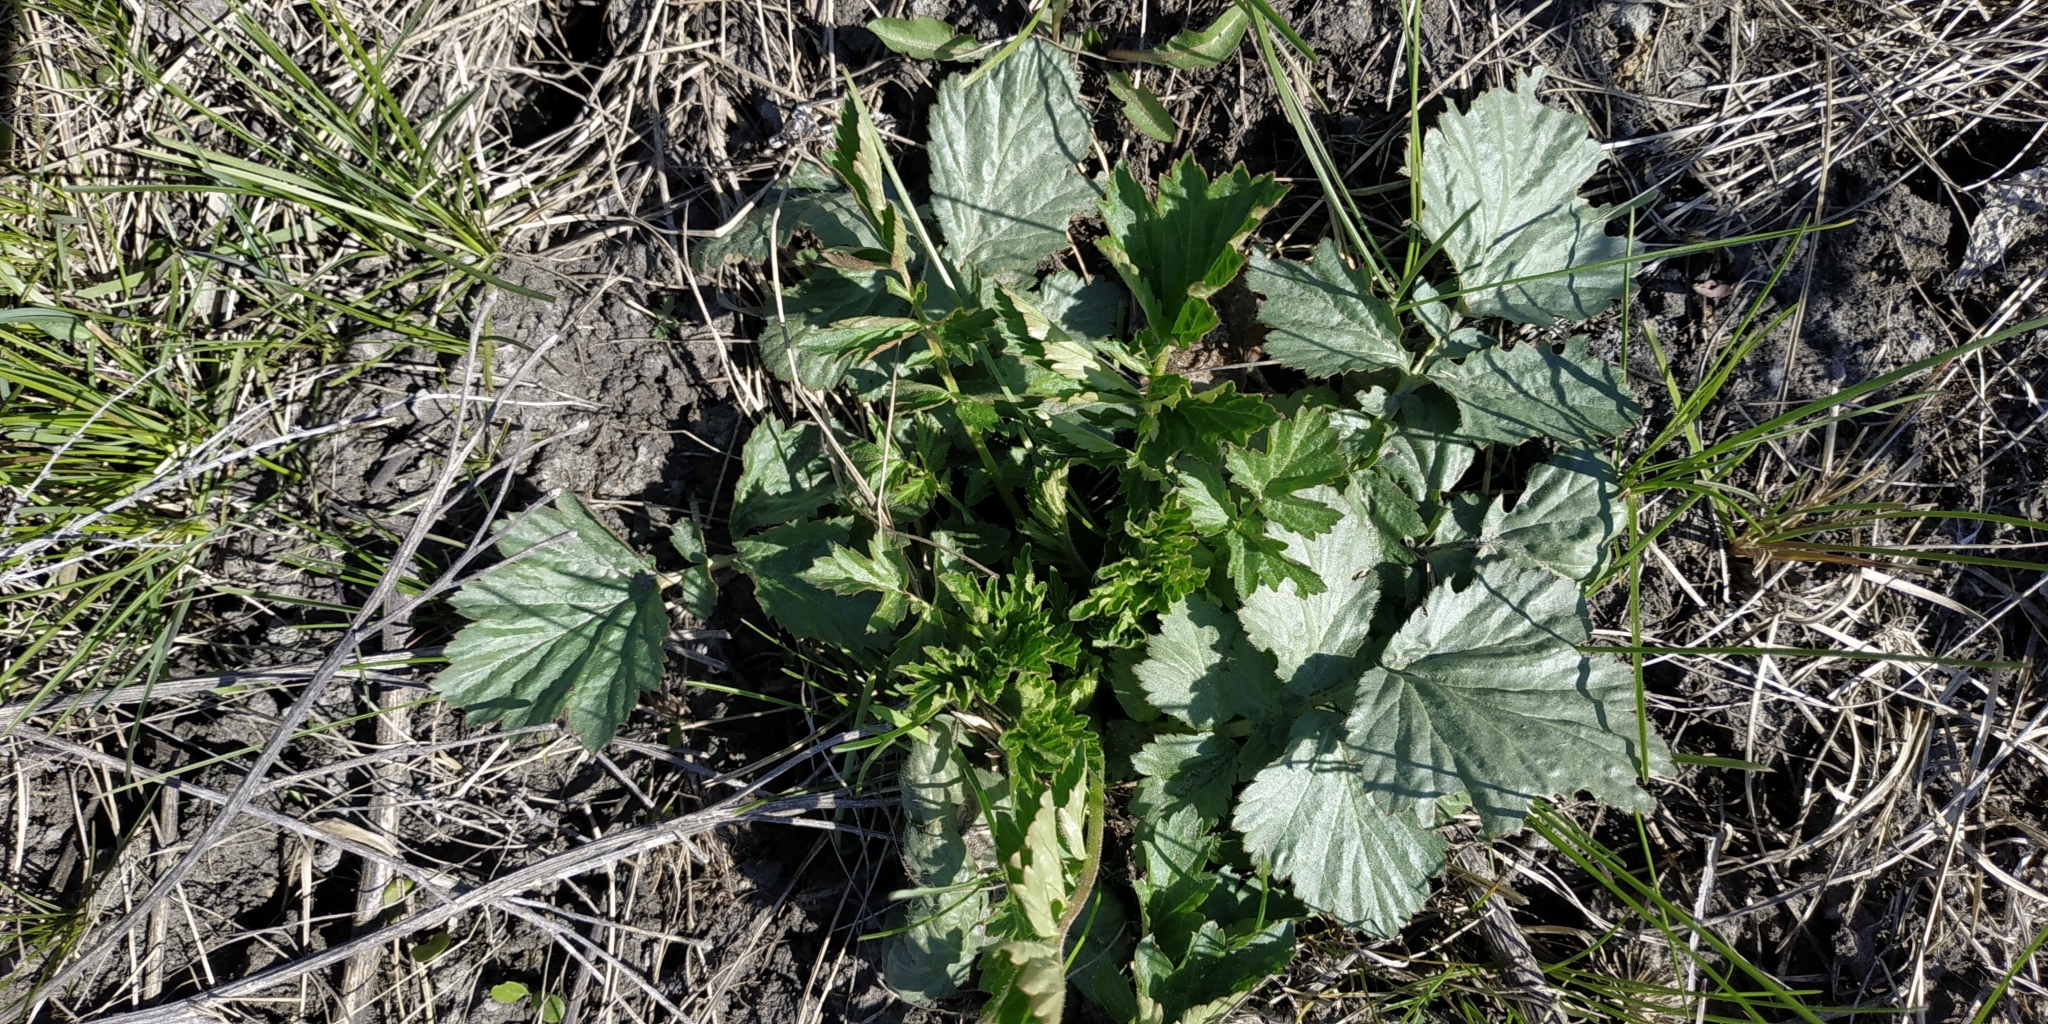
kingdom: Plantae
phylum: Tracheophyta
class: Magnoliopsida
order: Rosales
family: Rosaceae
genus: Geum
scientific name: Geum aleppicum
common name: Yellow avens
